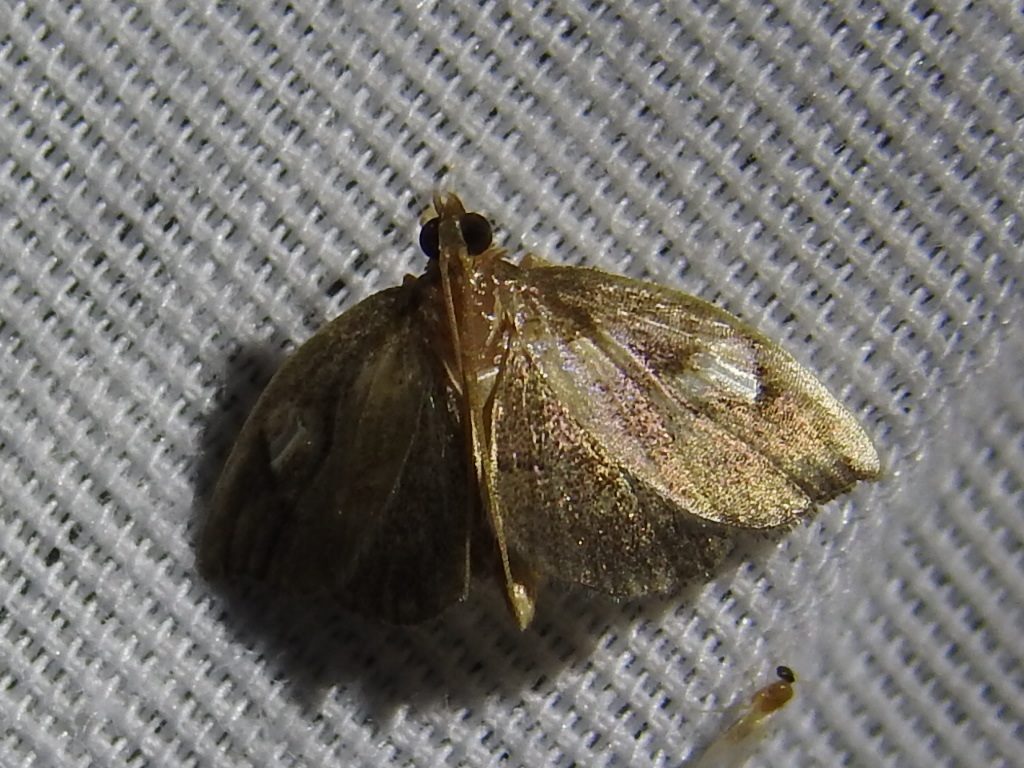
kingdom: Animalia
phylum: Arthropoda
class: Insecta
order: Lepidoptera
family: Crambidae
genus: Perispasta
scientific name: Perispasta caeculalis
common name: Titian peale's moth
